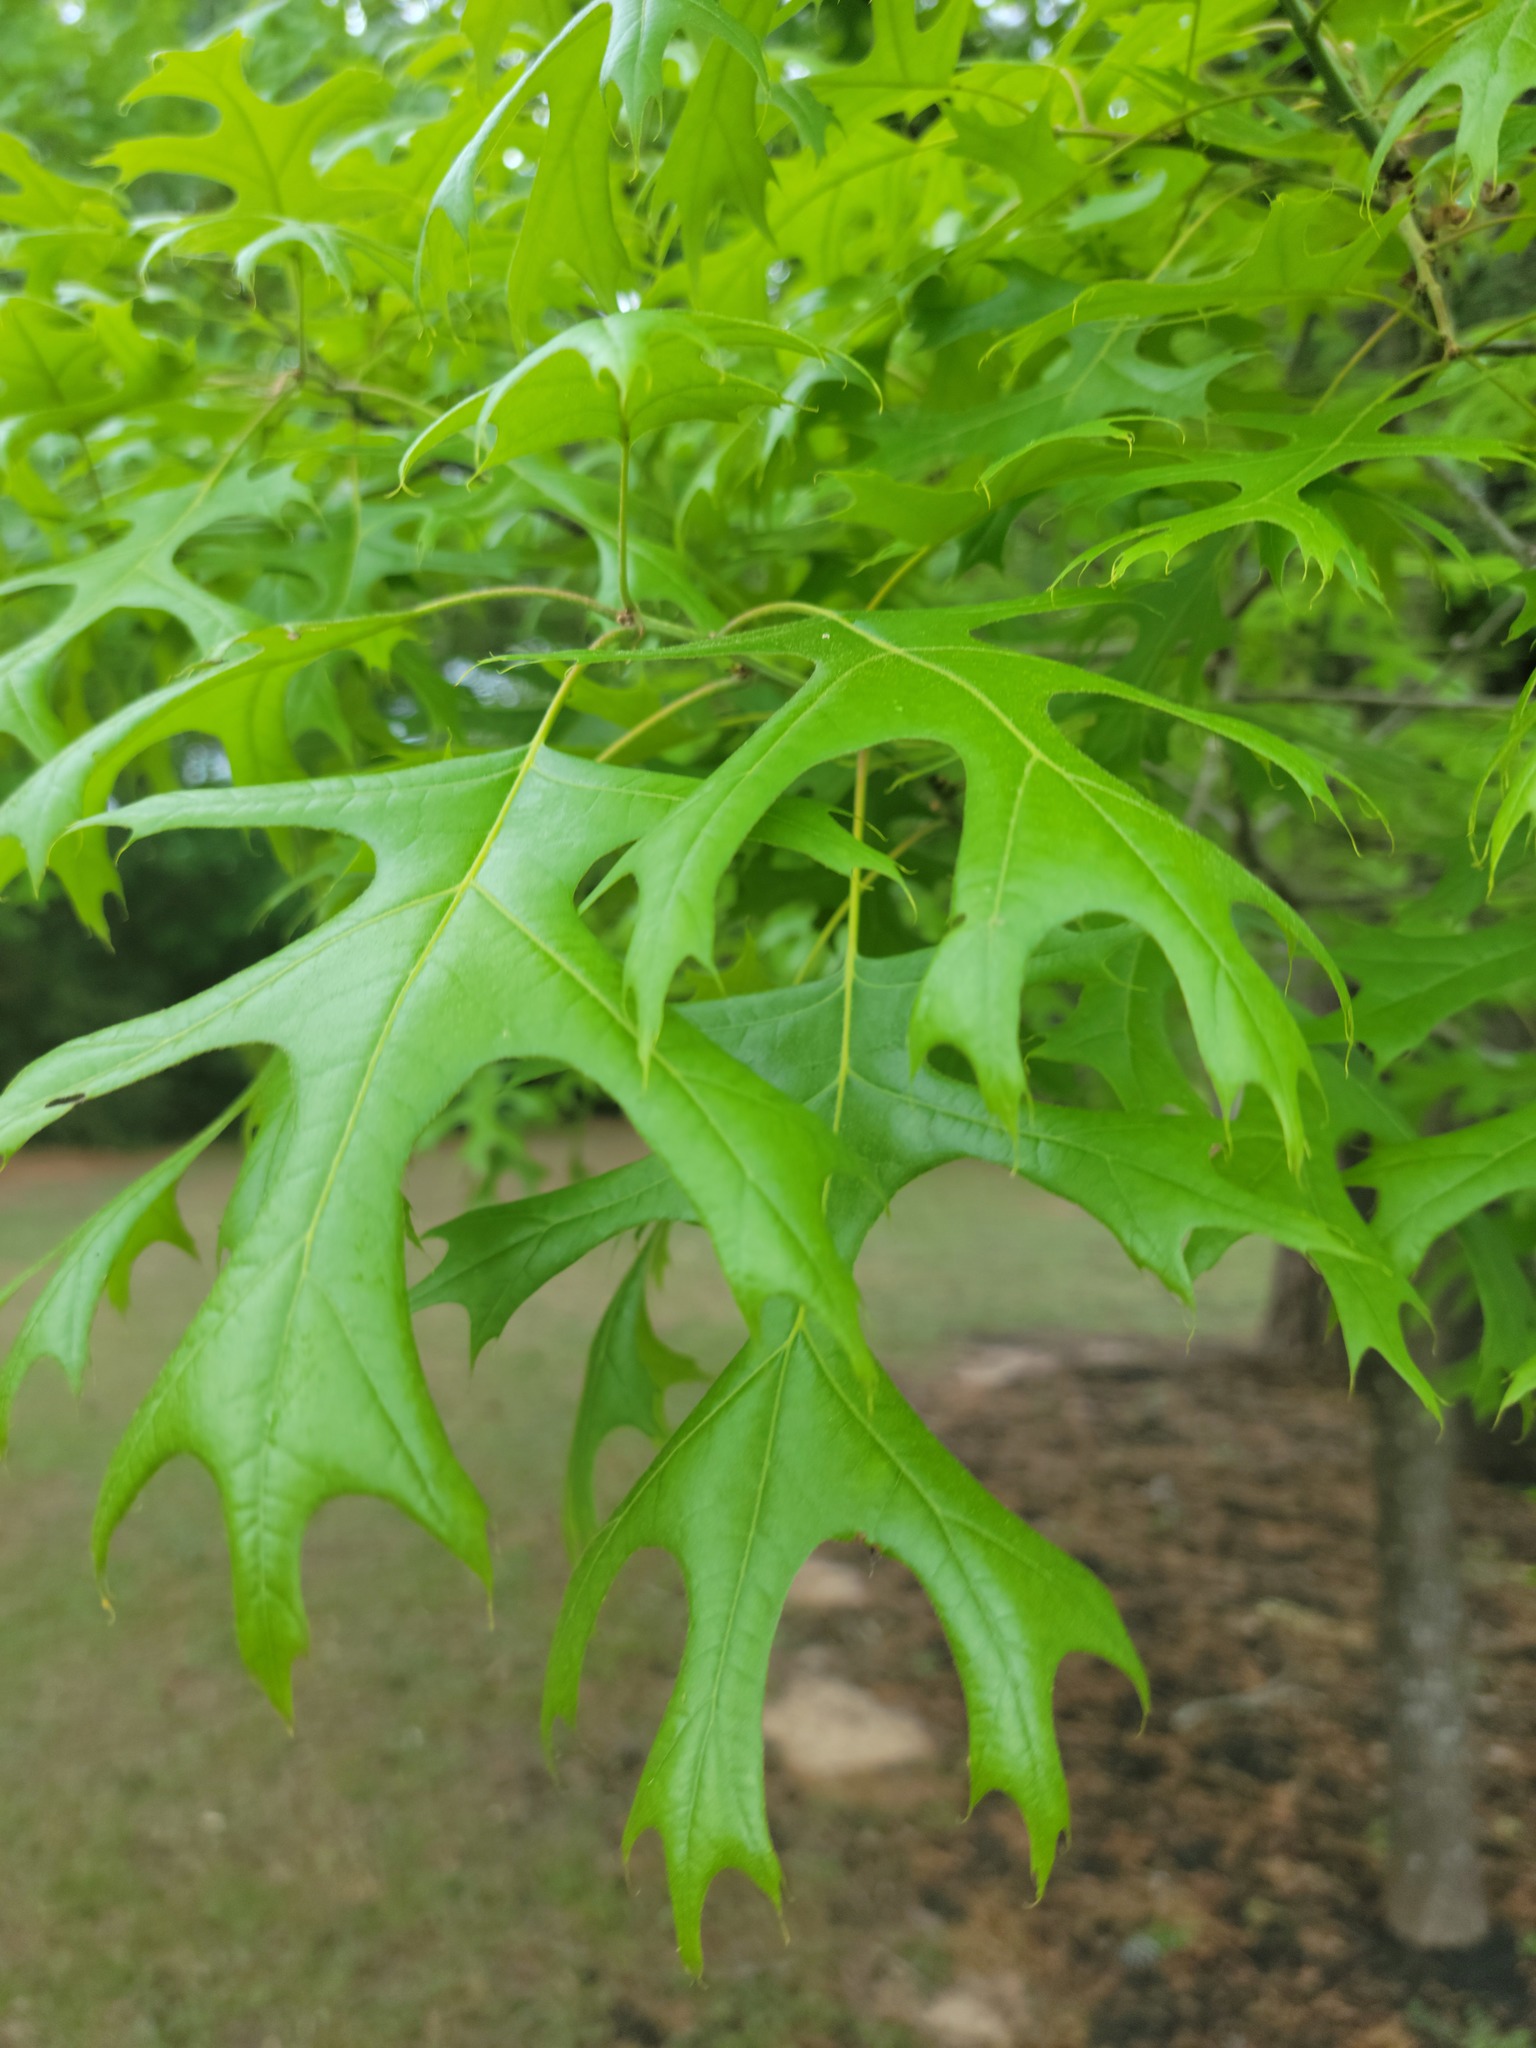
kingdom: Plantae
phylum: Tracheophyta
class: Magnoliopsida
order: Fagales
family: Fagaceae
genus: Quercus
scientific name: Quercus shumardii
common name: Shumard oak
